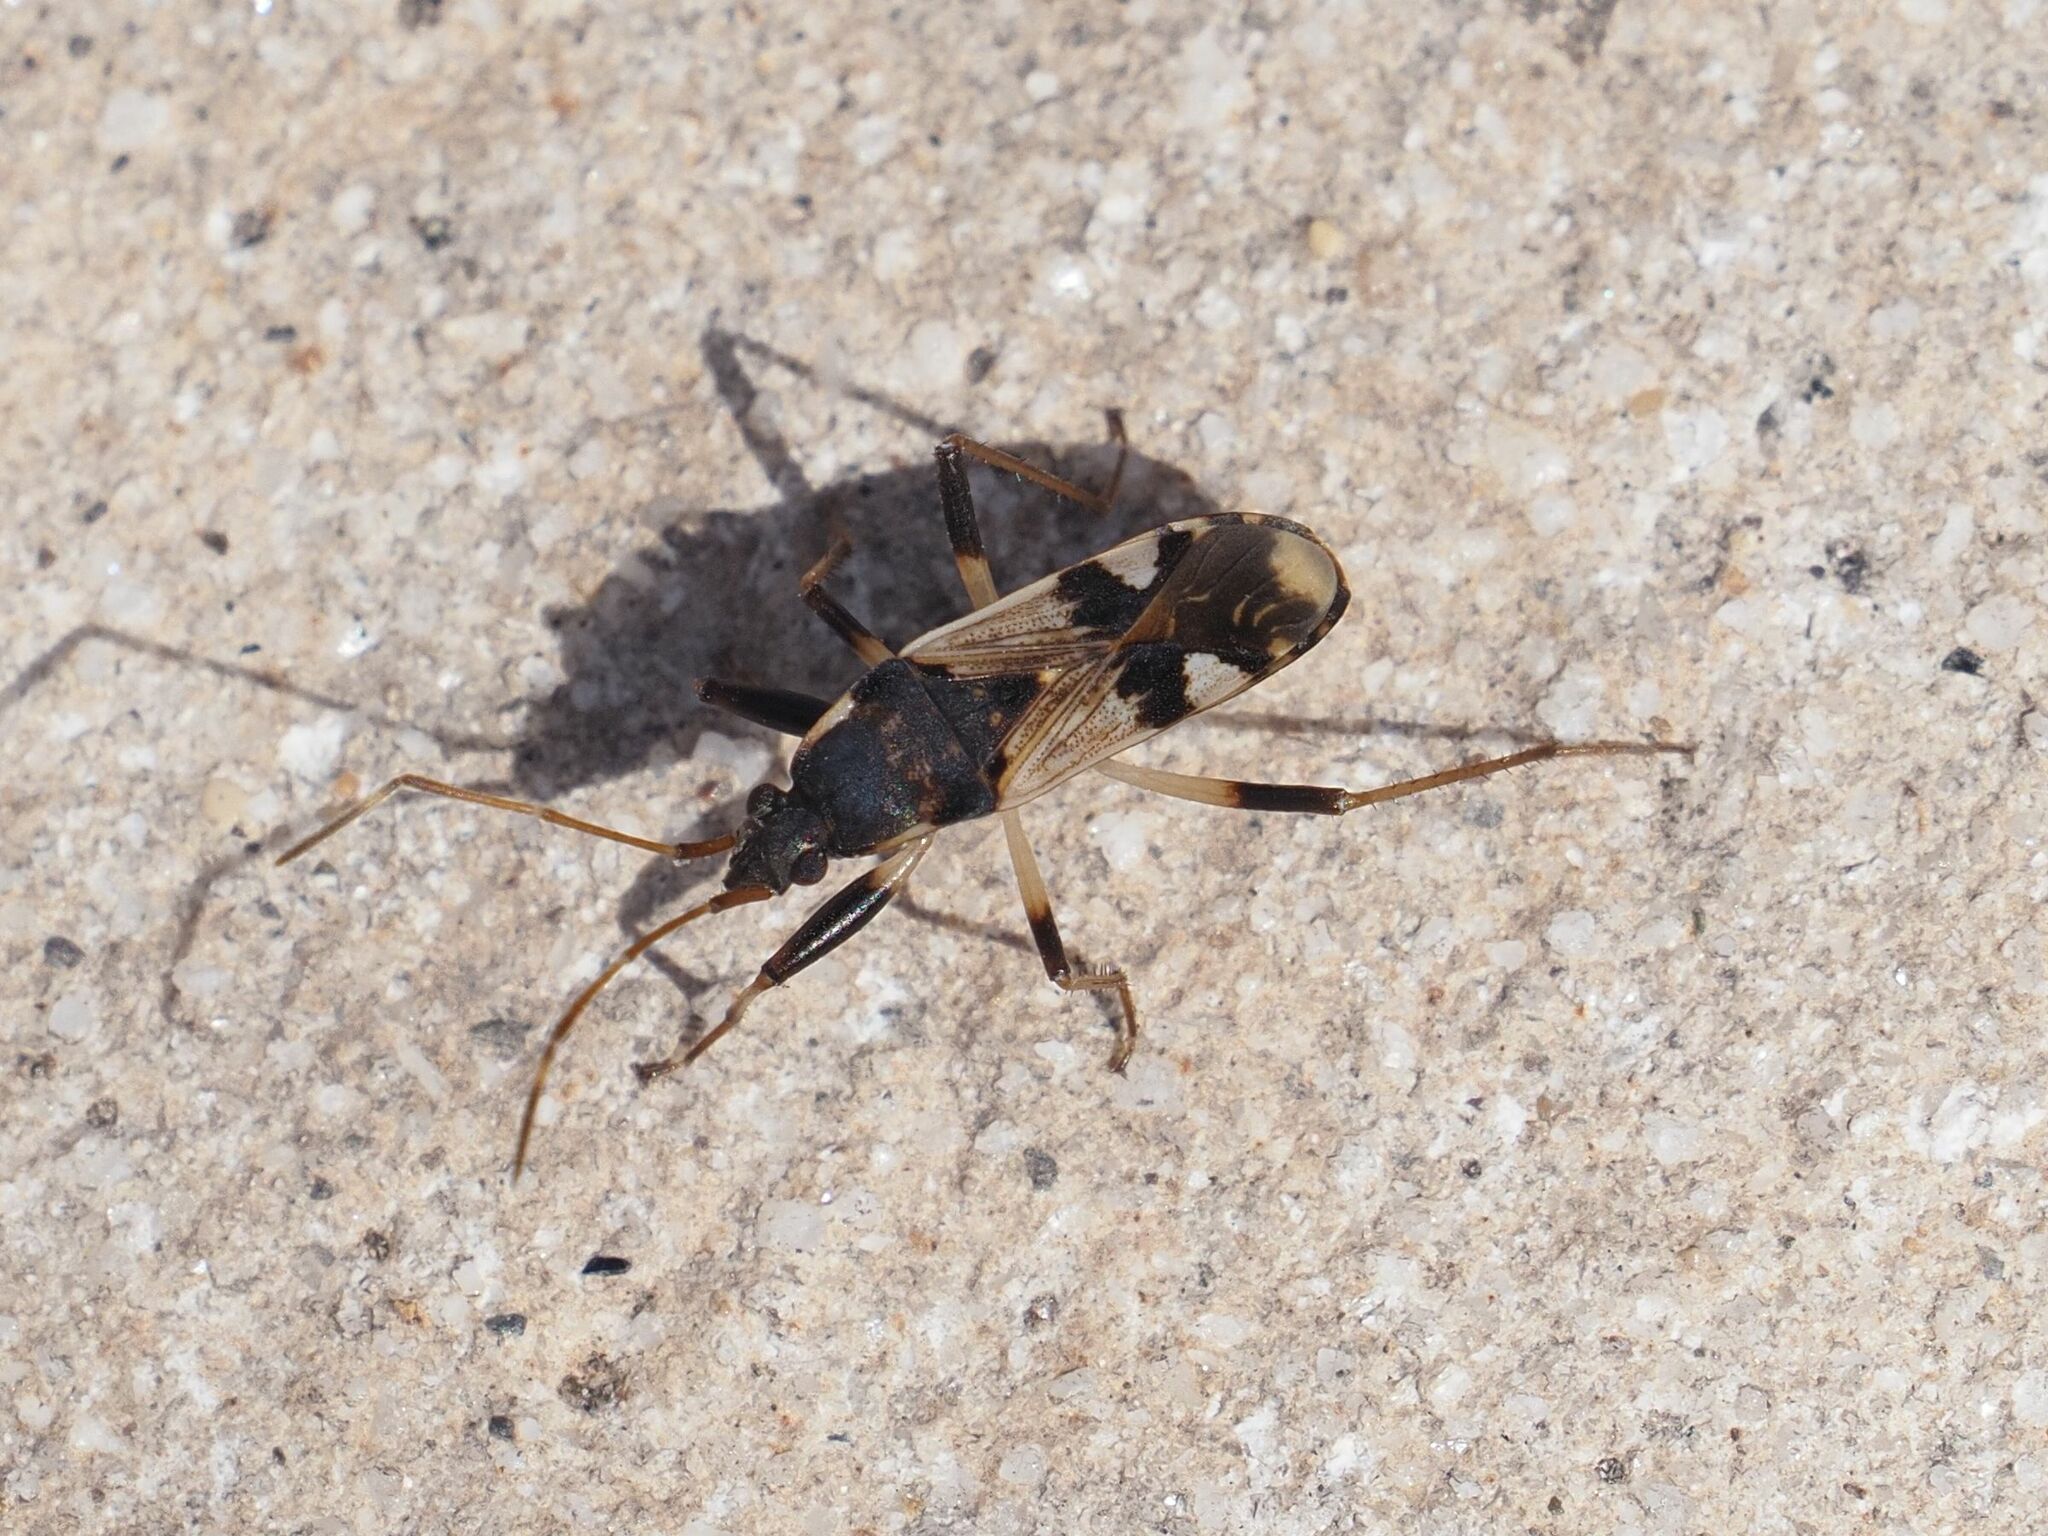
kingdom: Animalia
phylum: Arthropoda
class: Insecta
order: Hemiptera
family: Rhyparochromidae
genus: Dieuches
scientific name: Dieuches schmitzi
